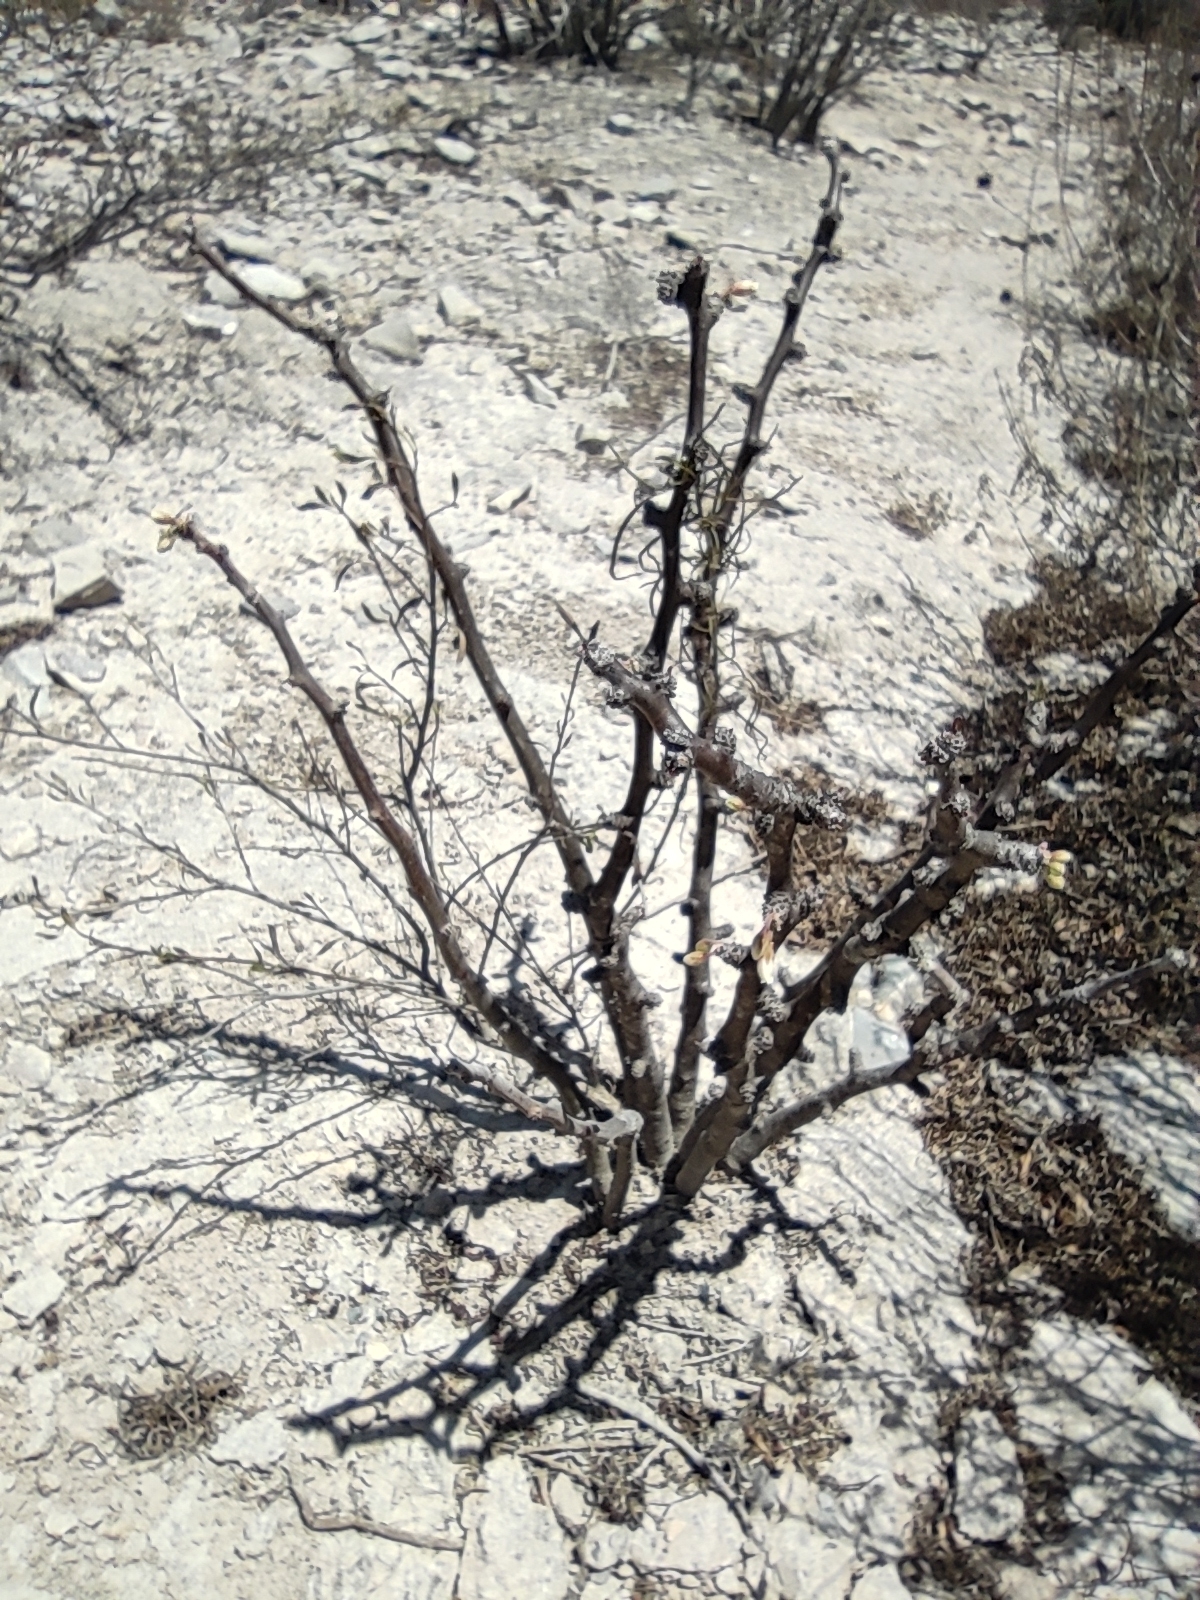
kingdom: Plantae
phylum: Tracheophyta
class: Magnoliopsida
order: Malpighiales
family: Euphorbiaceae
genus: Jatropha
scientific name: Jatropha dioica
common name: Leatherstem
